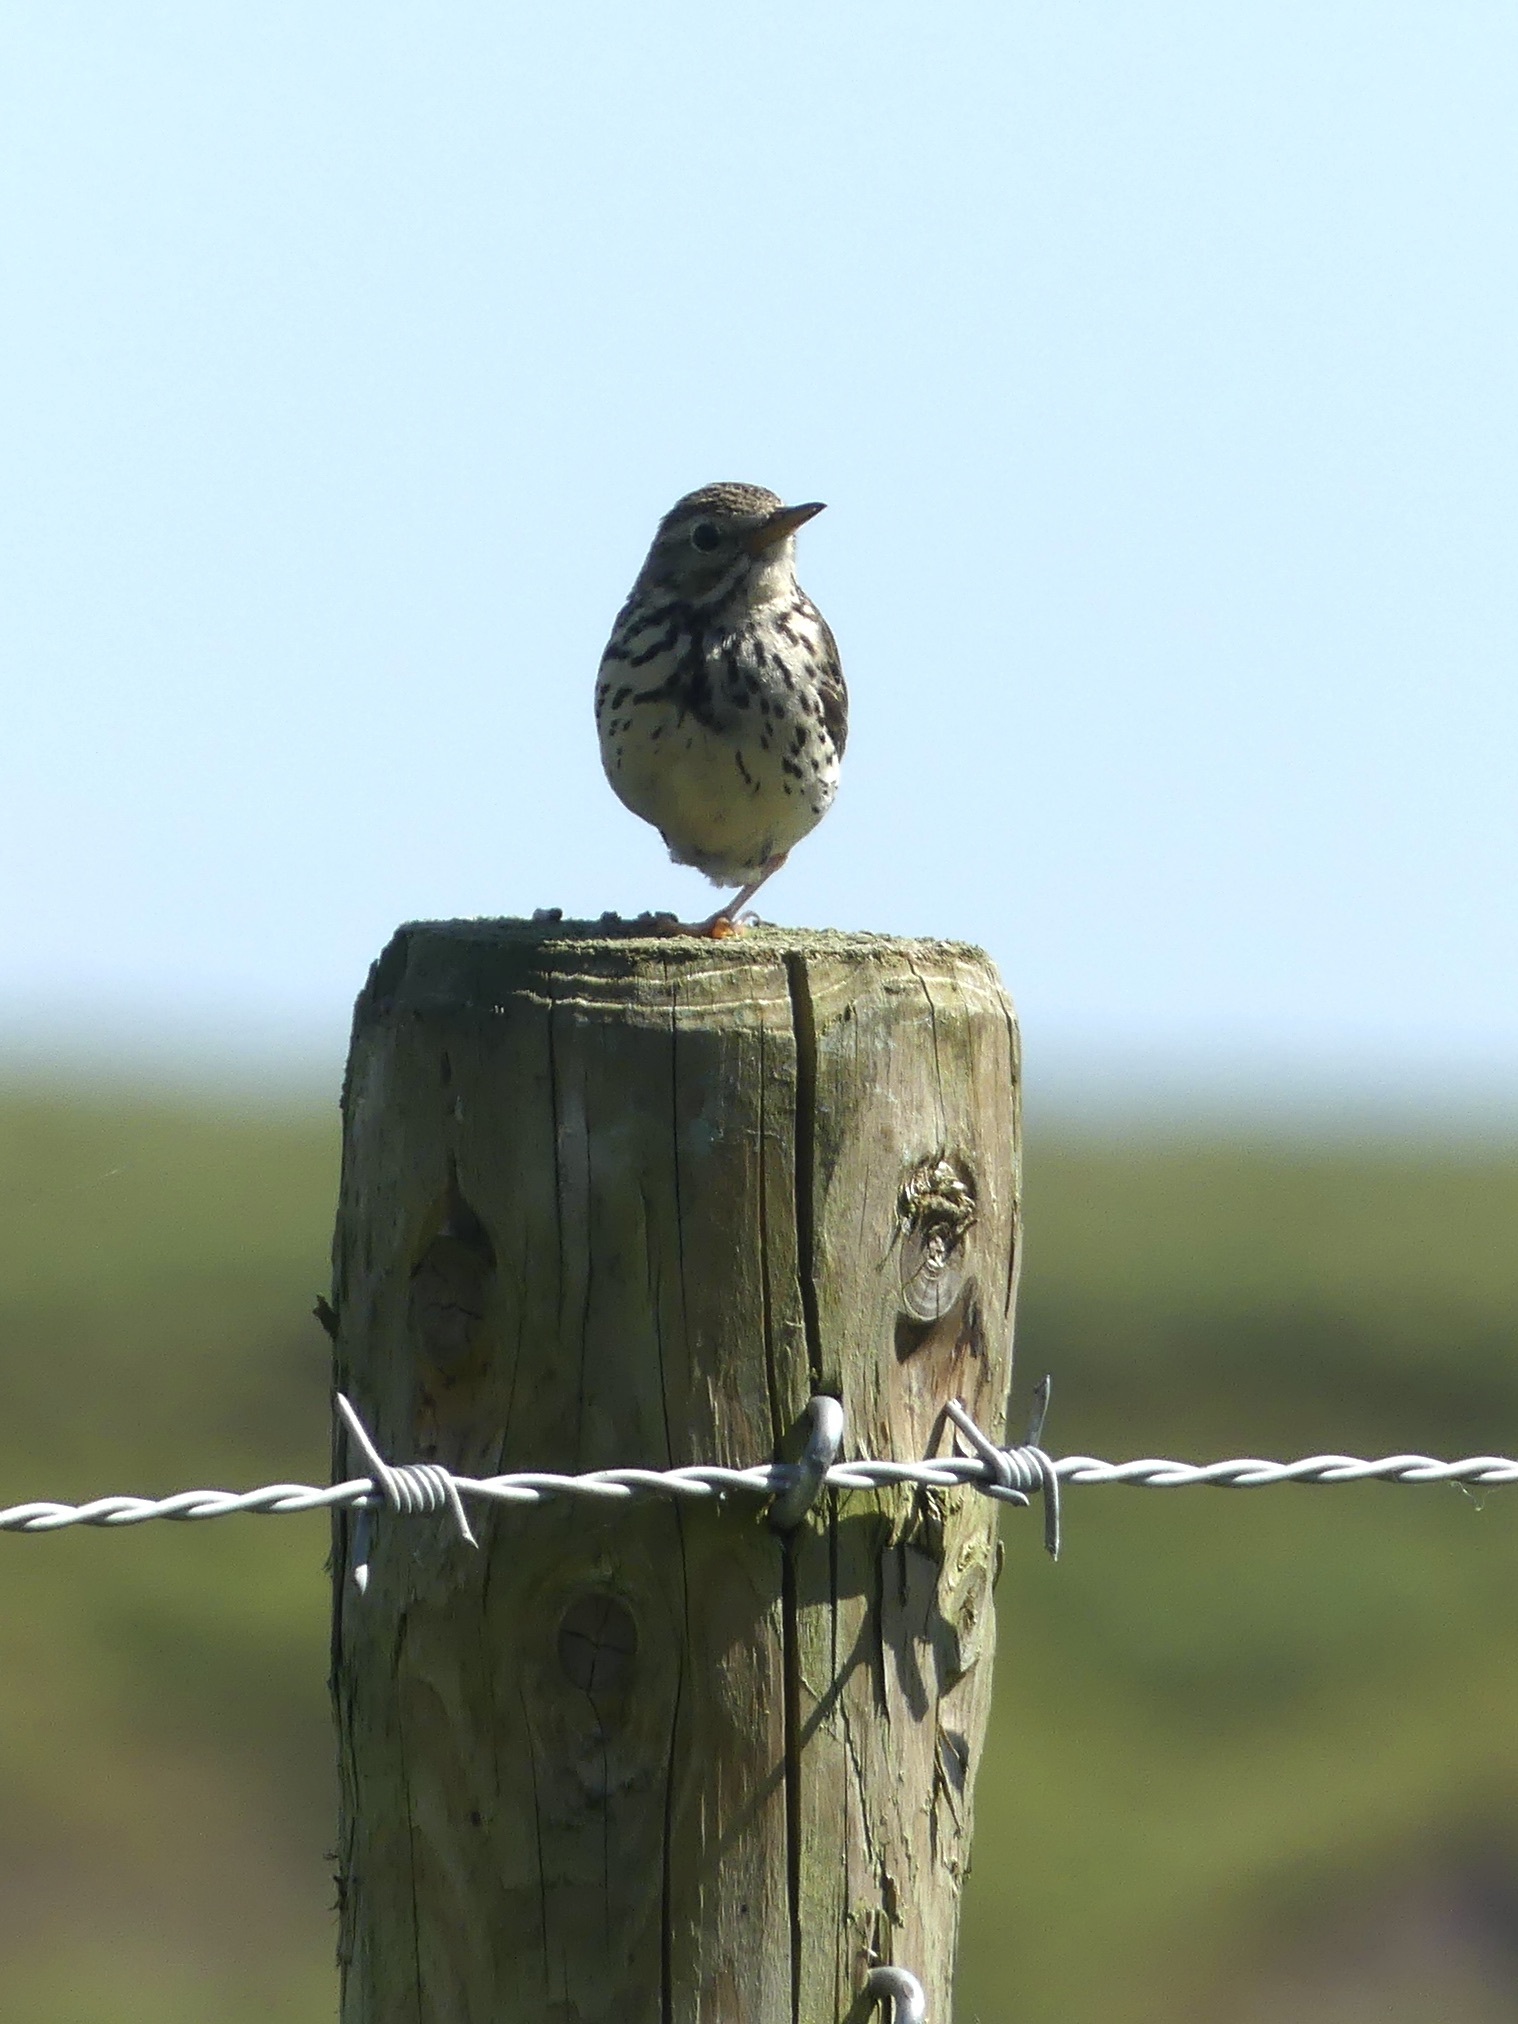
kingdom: Animalia
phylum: Chordata
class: Aves
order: Passeriformes
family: Motacillidae
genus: Anthus
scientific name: Anthus pratensis
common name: Meadow pipit
